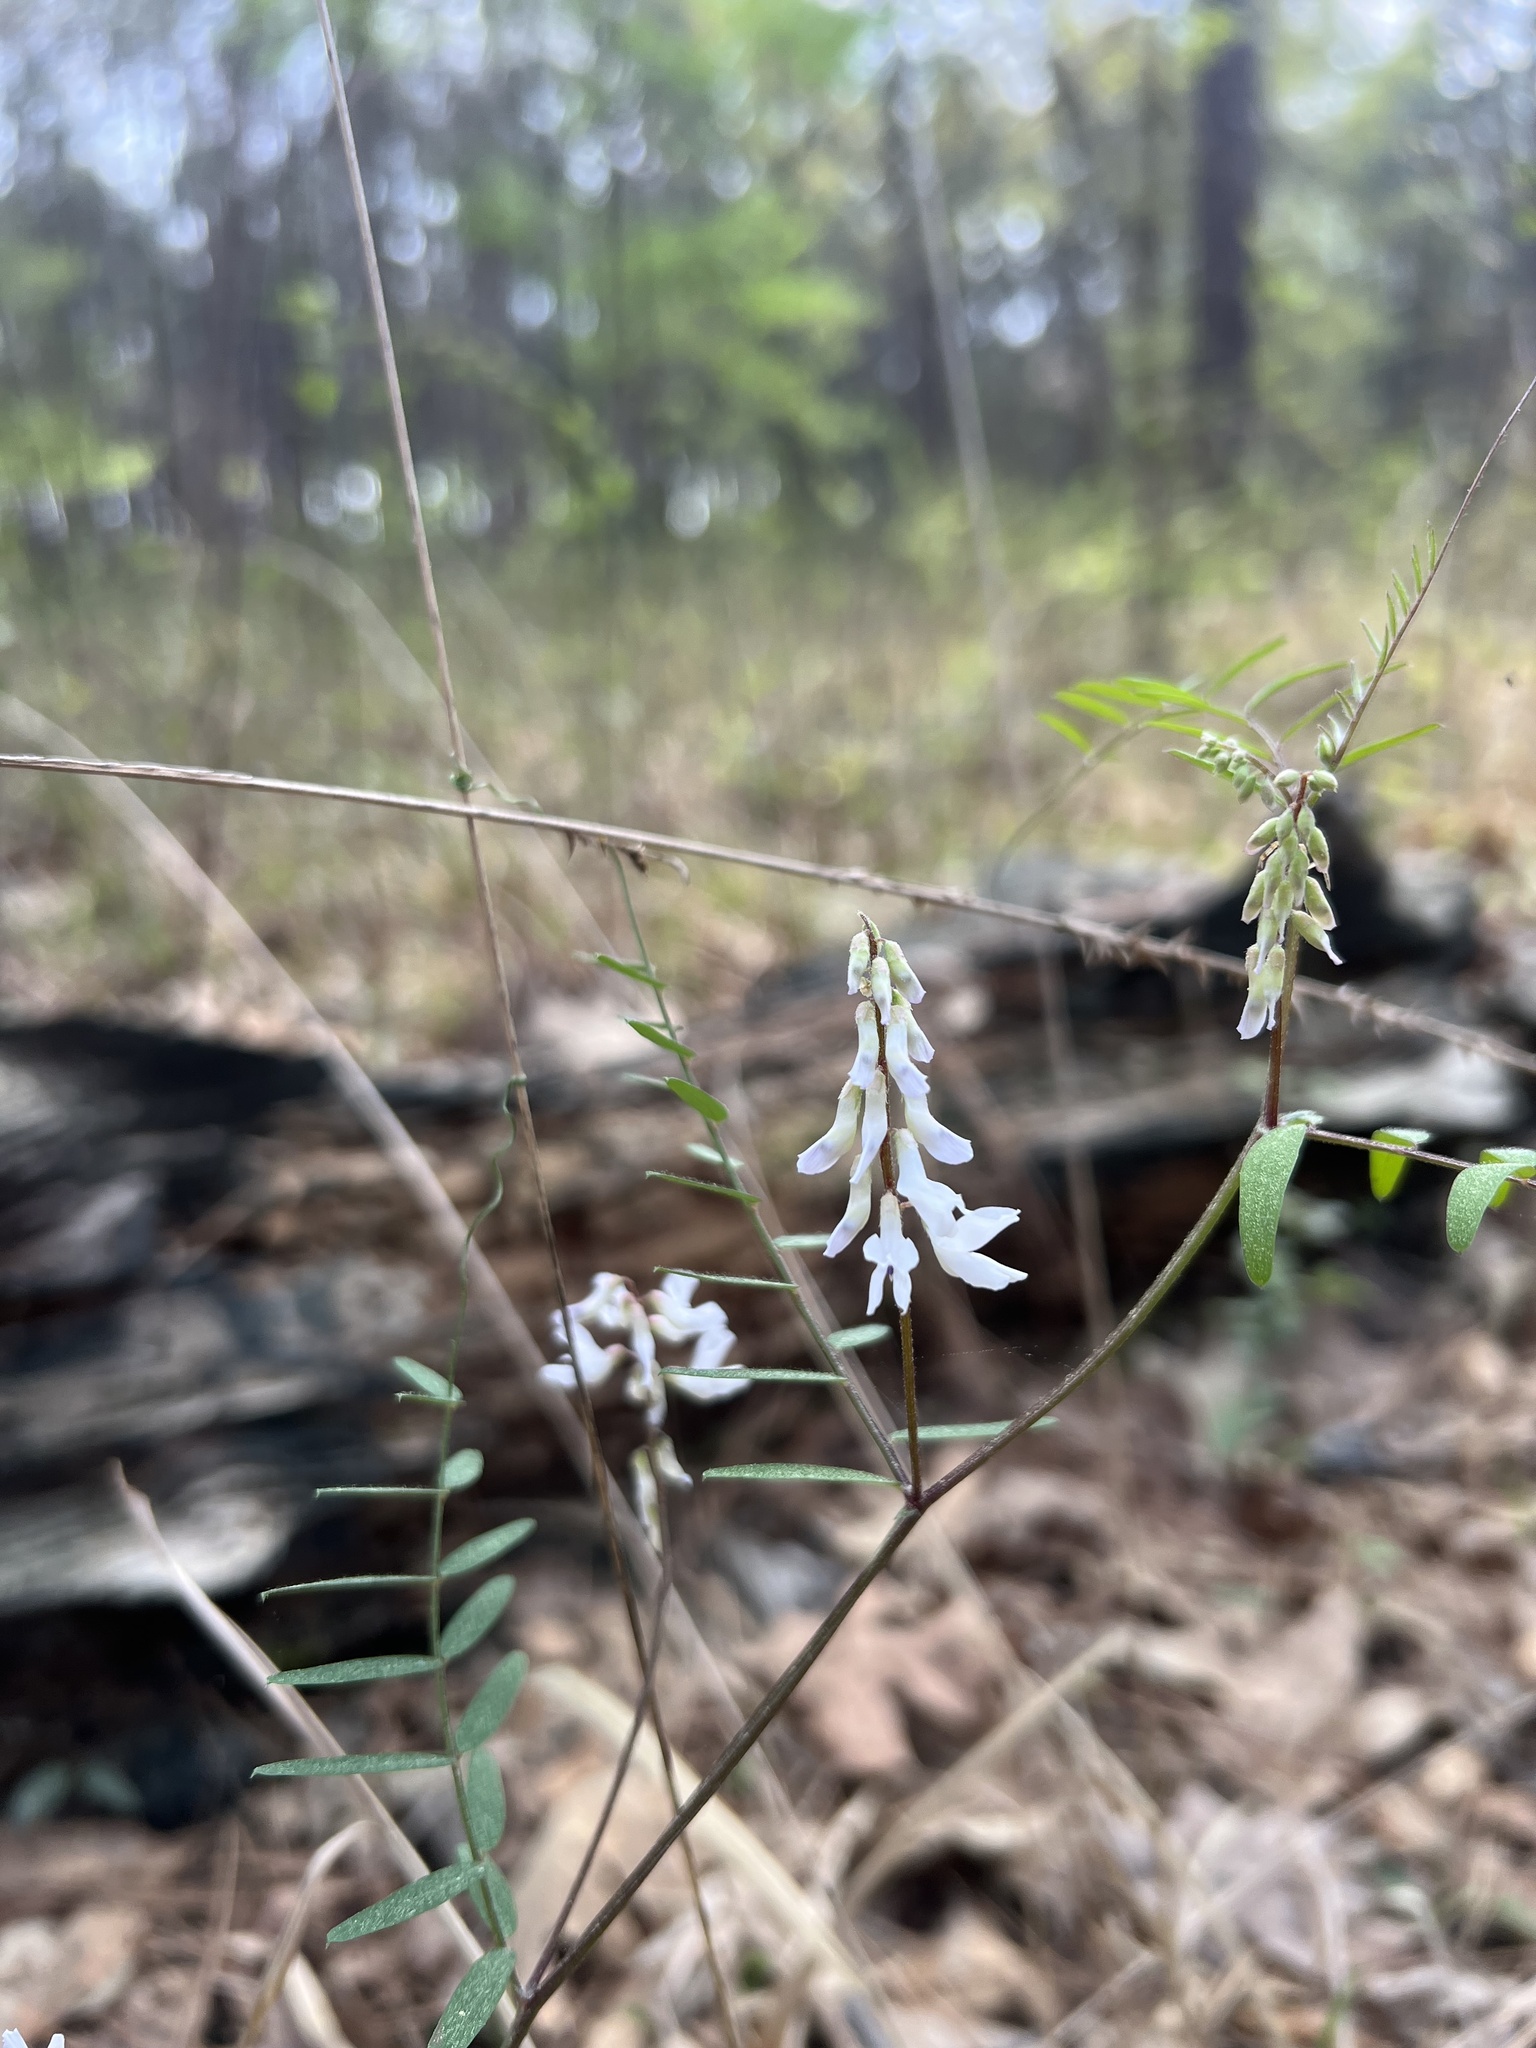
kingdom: Plantae
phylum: Tracheophyta
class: Magnoliopsida
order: Fabales
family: Fabaceae
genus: Vicia
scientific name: Vicia caroliniana
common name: Carolina vetch
